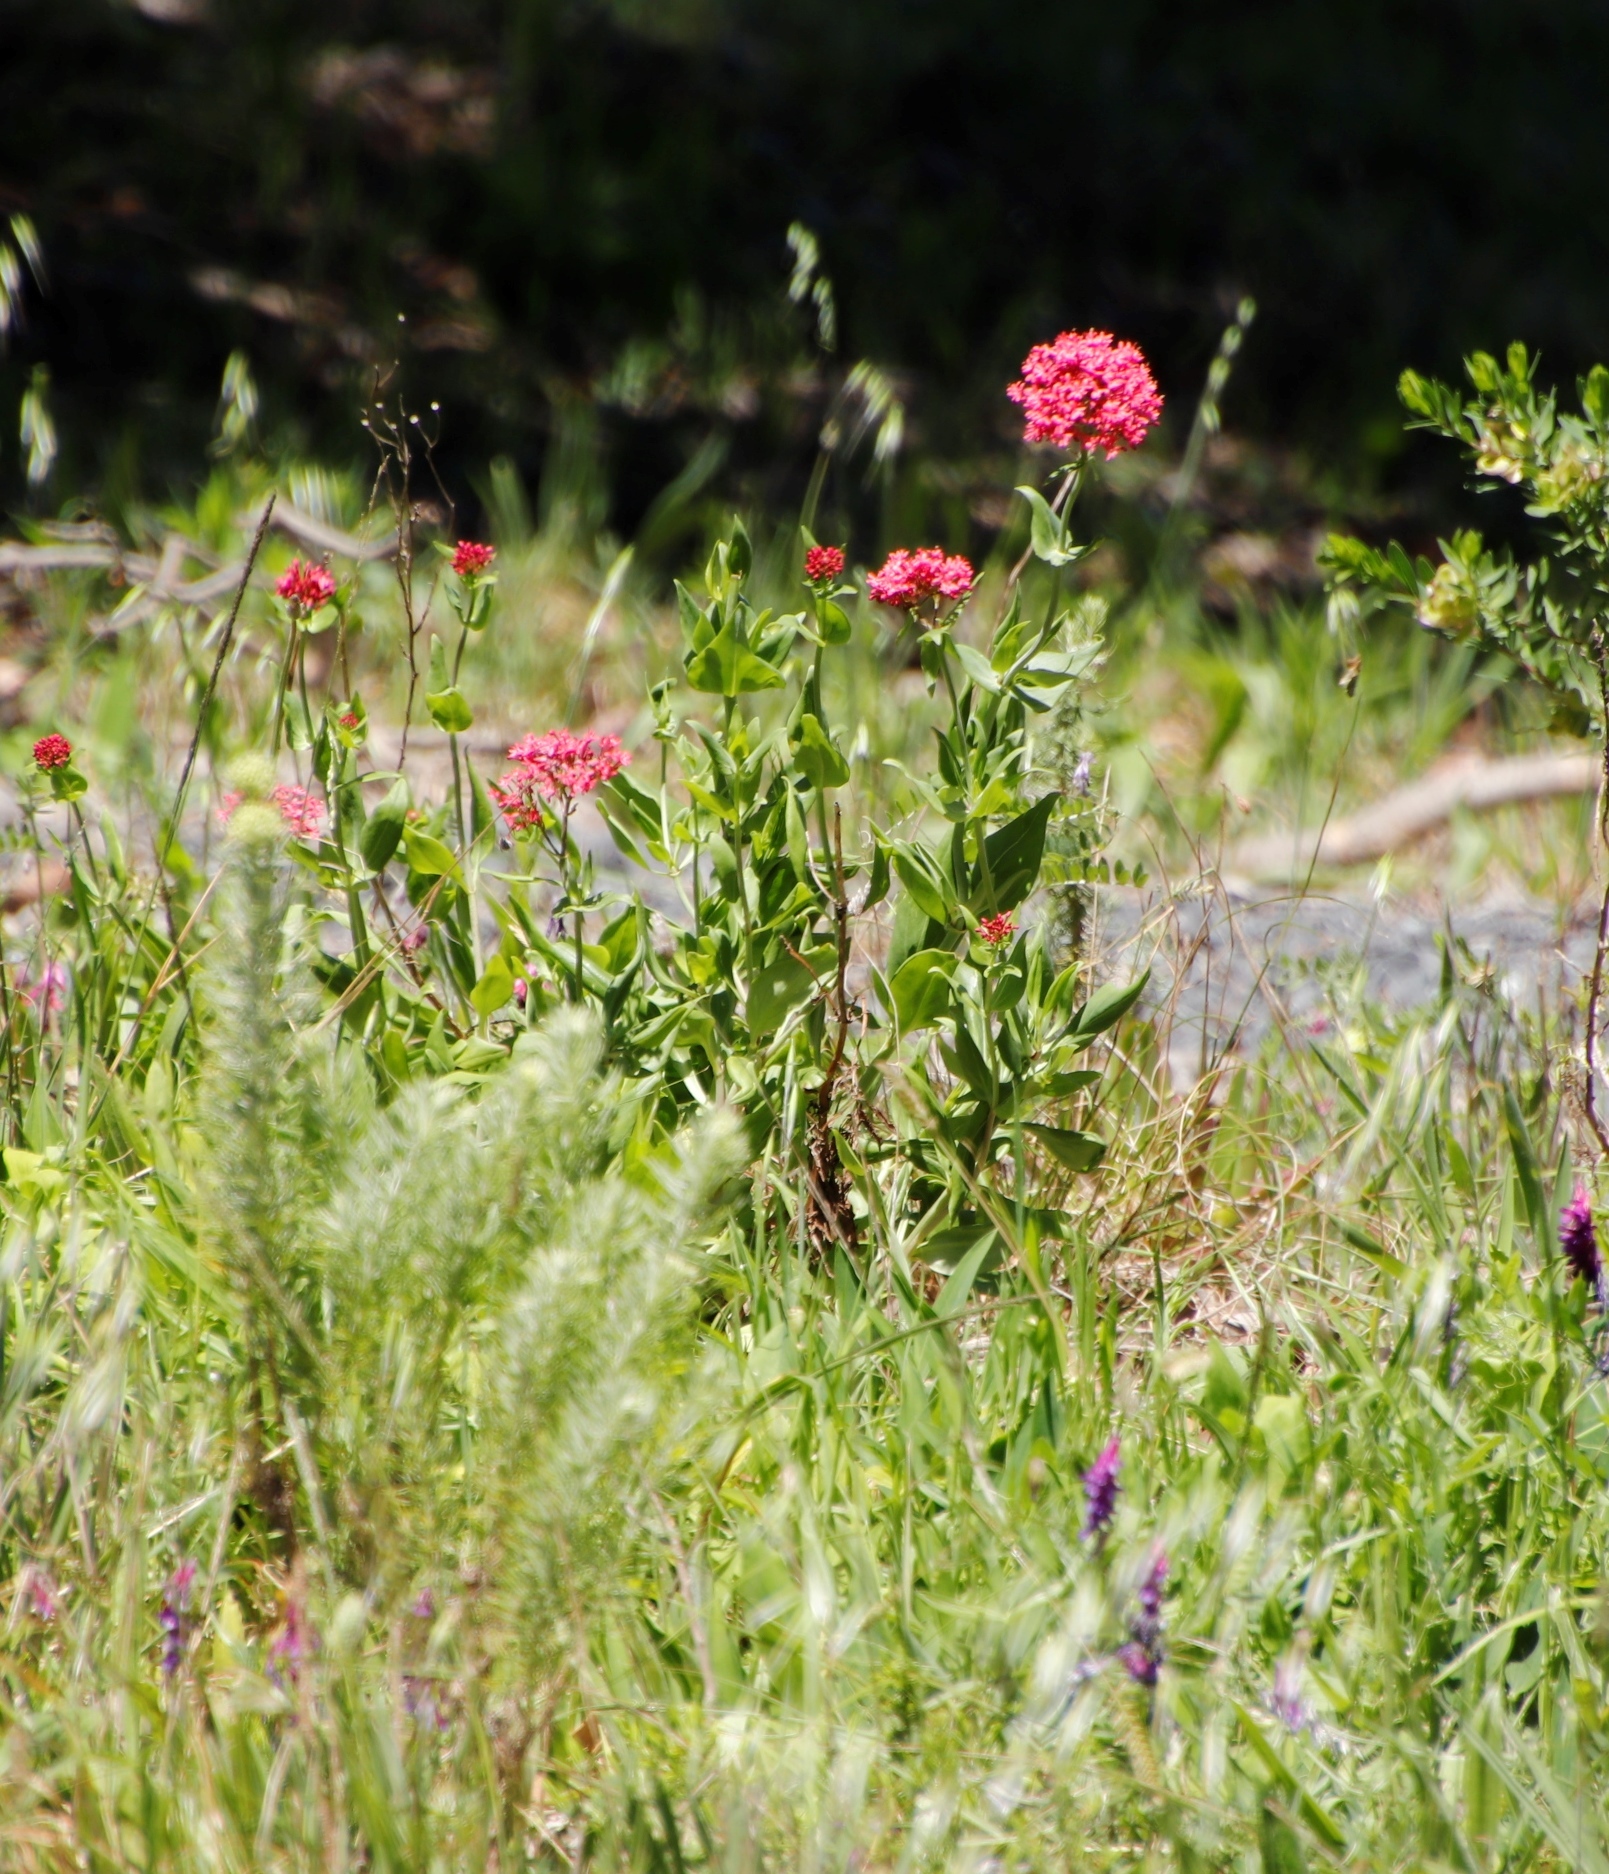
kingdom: Plantae
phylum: Tracheophyta
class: Magnoliopsida
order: Dipsacales
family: Caprifoliaceae
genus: Centranthus
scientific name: Centranthus ruber
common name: Red valerian
